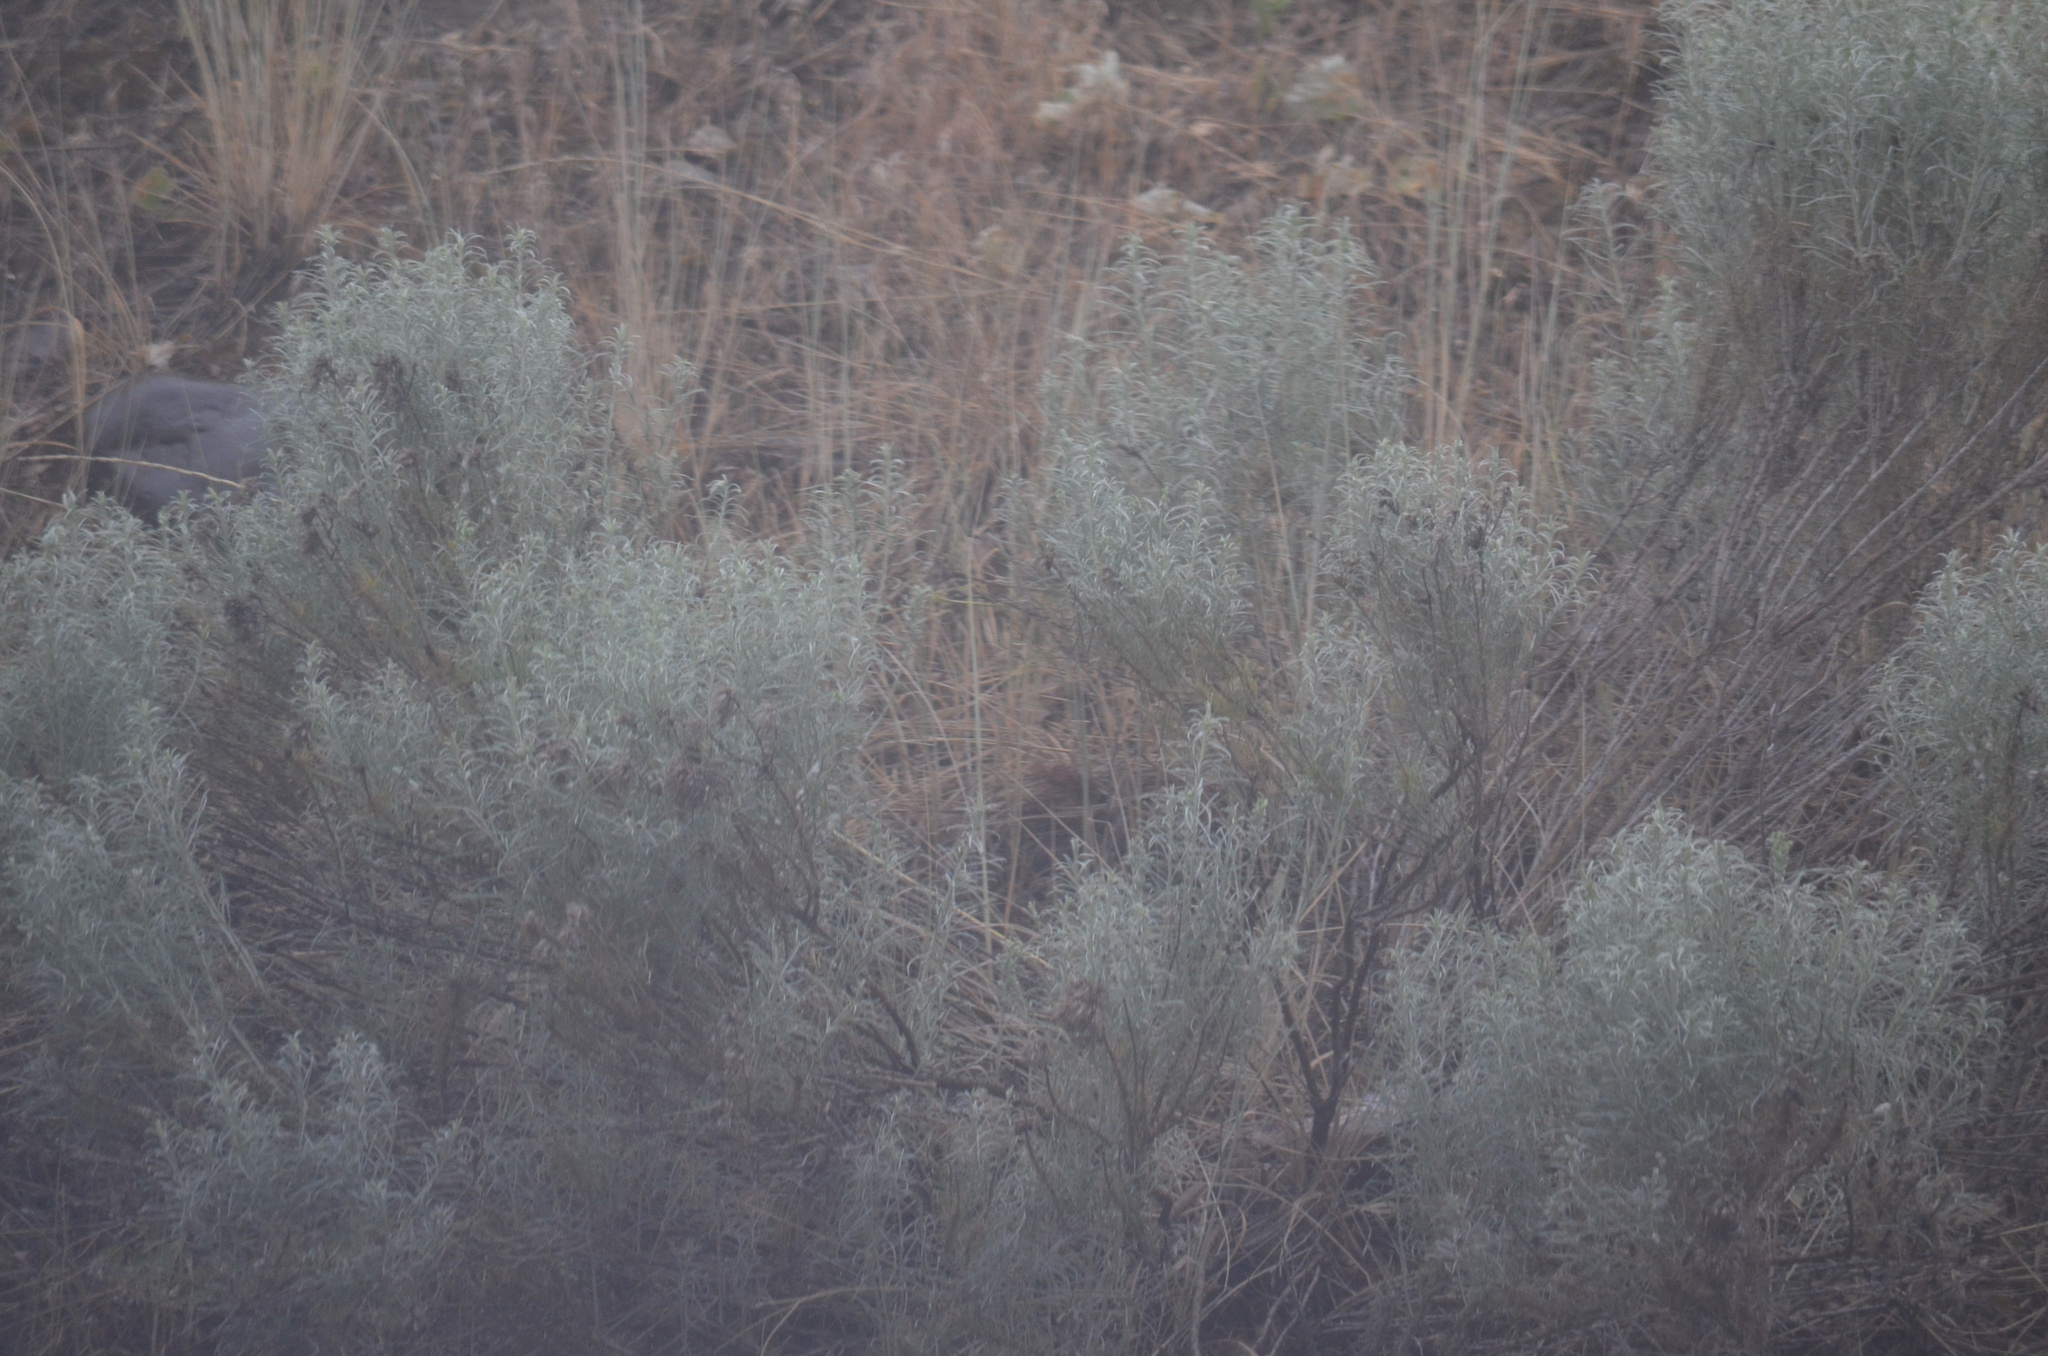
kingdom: Plantae
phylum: Tracheophyta
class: Magnoliopsida
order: Asterales
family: Asteraceae
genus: Ericameria
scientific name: Ericameria nauseosa
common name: Rubber rabbitbrush
